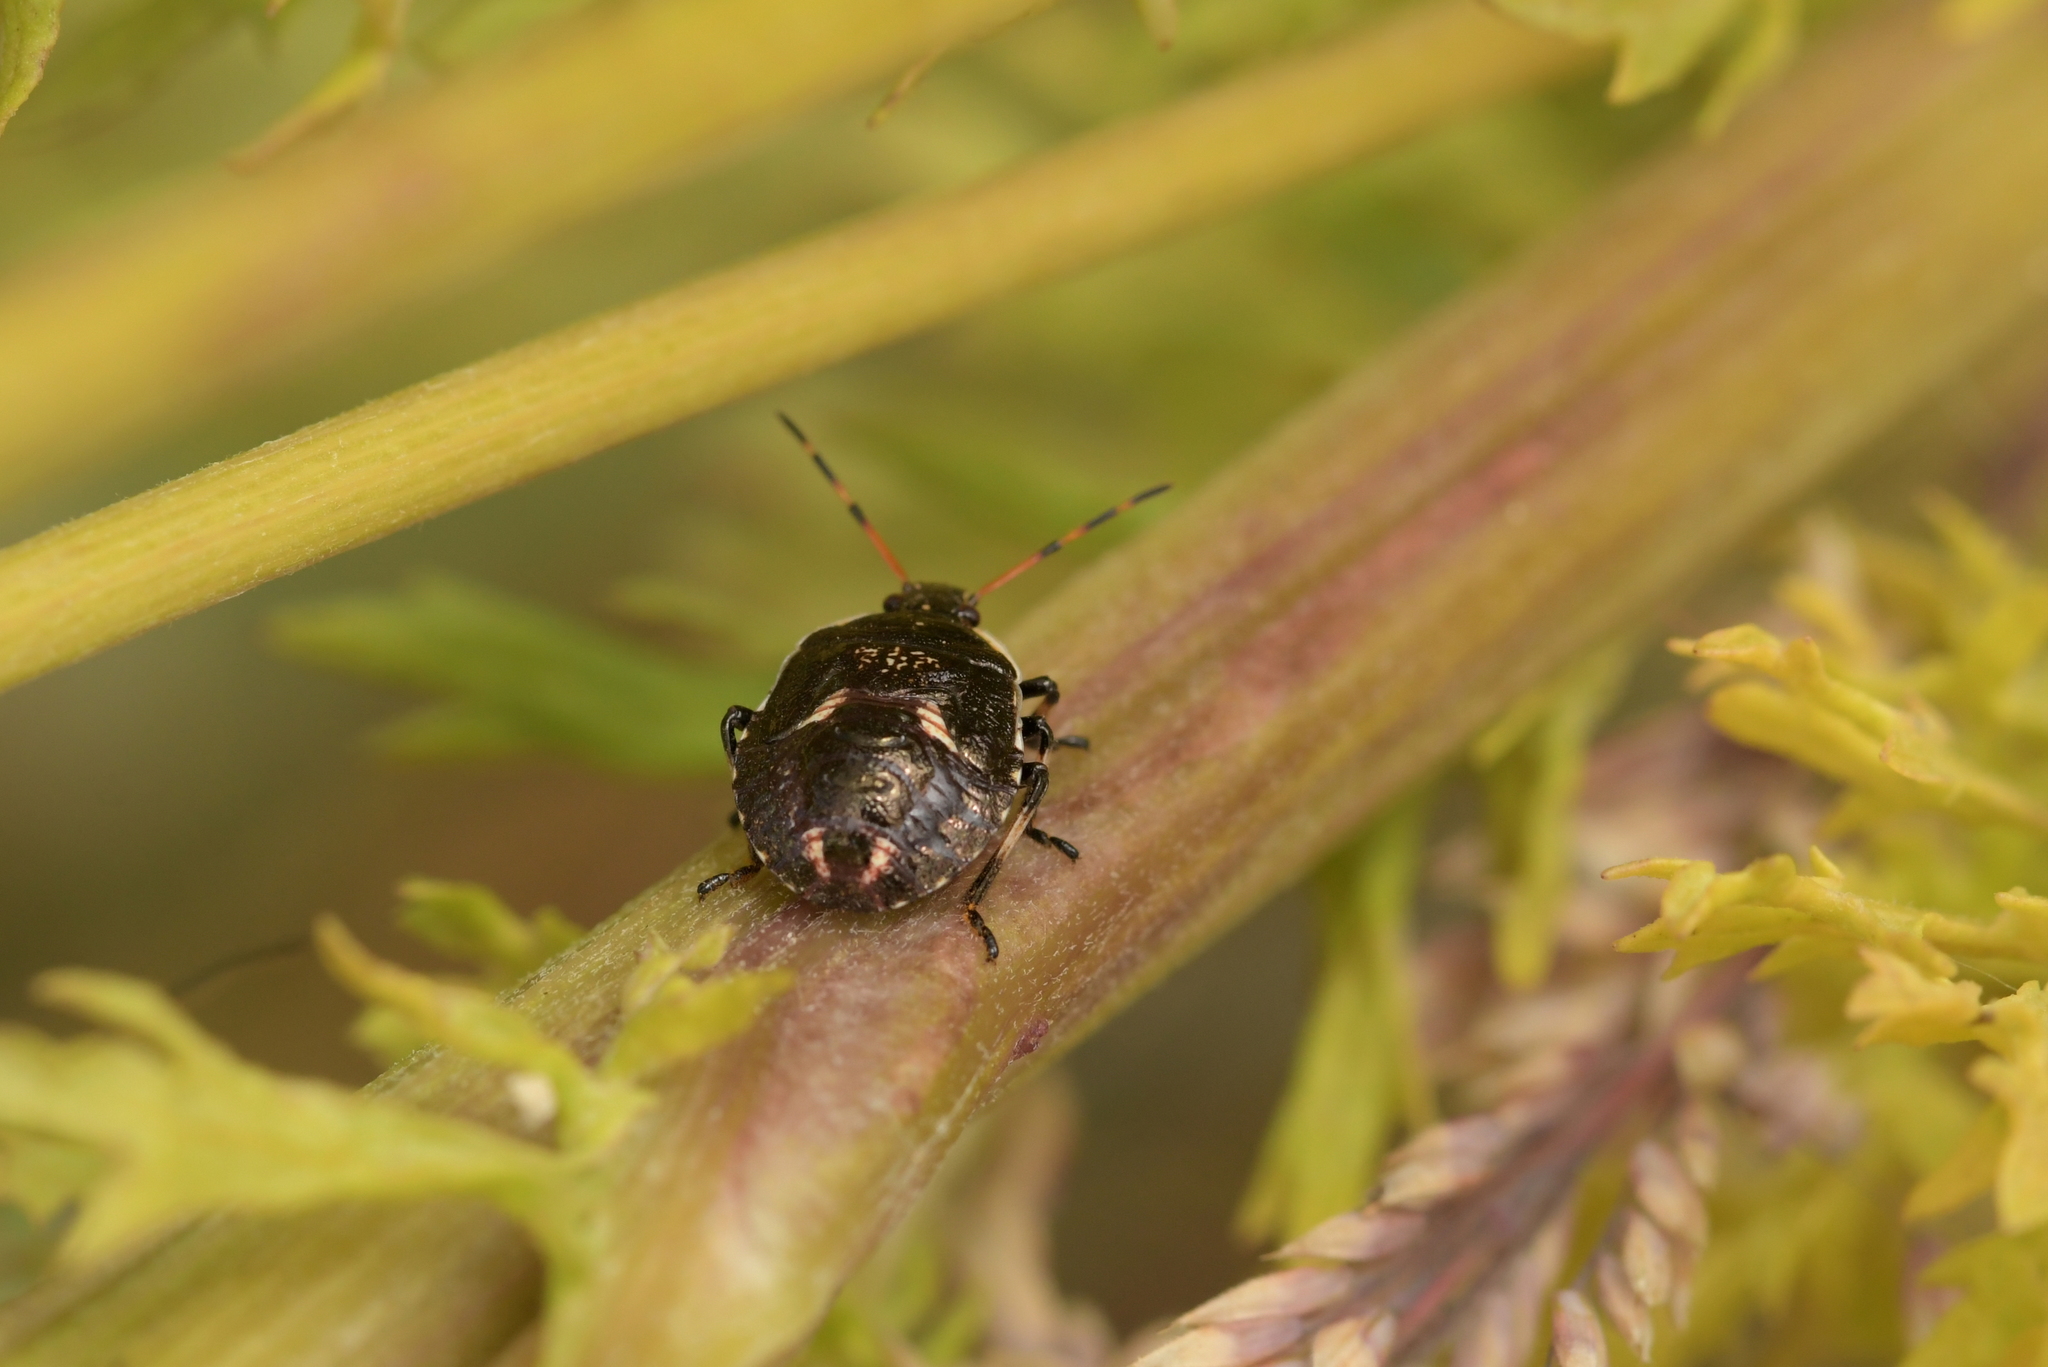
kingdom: Animalia
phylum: Arthropoda
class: Insecta
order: Hemiptera
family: Pentatomidae
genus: Cermatulus
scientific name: Cermatulus nasalis
